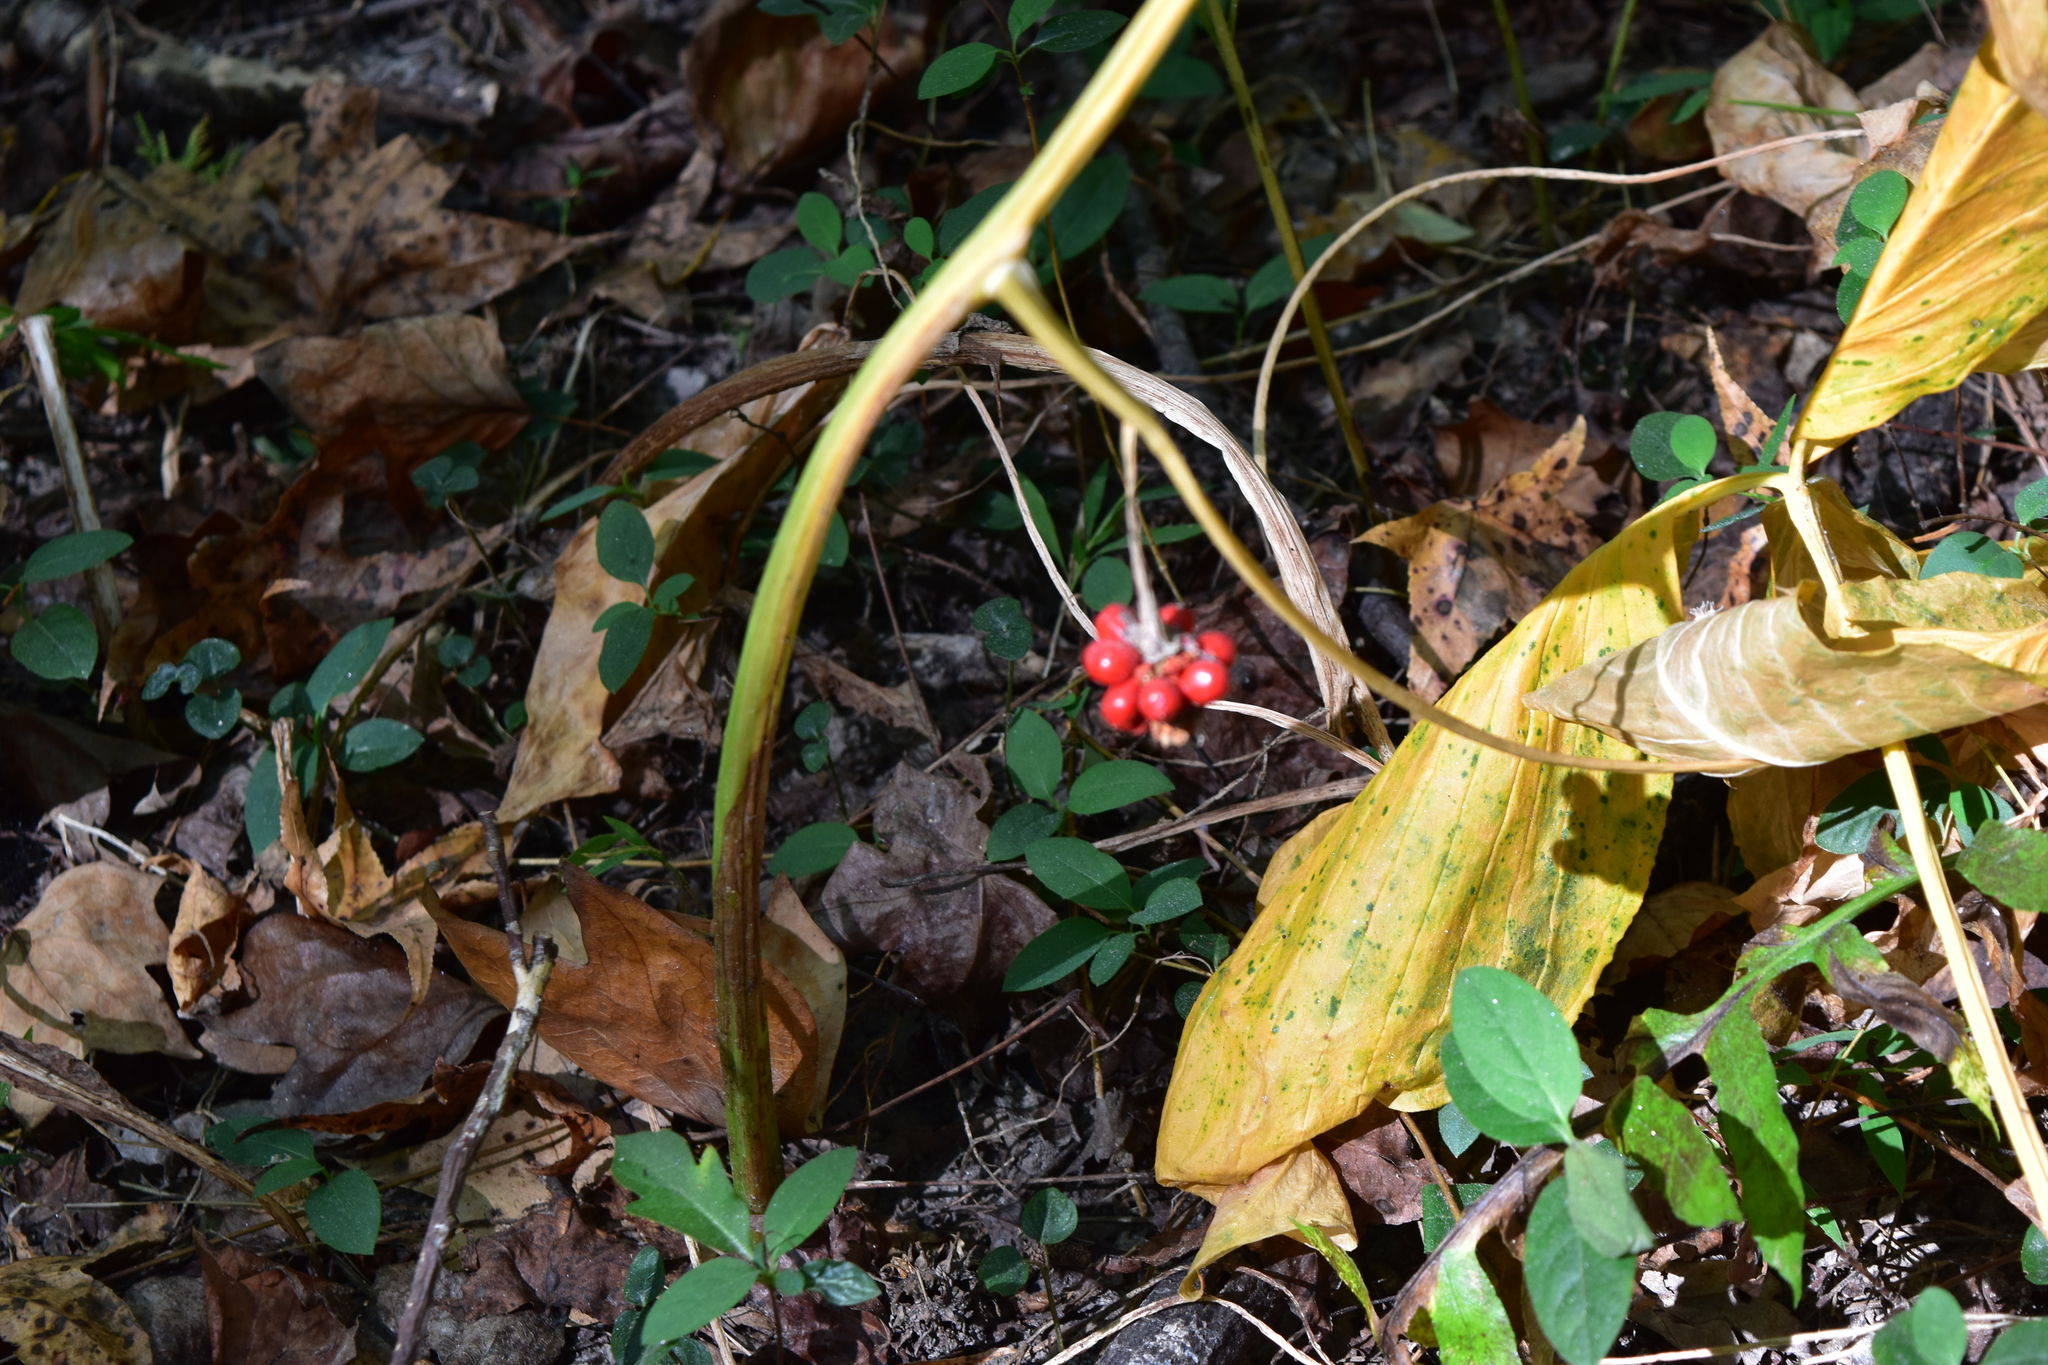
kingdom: Plantae
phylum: Tracheophyta
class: Liliopsida
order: Alismatales
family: Araceae
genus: Arisaema
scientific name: Arisaema triphyllum
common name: Jack-in-the-pulpit
